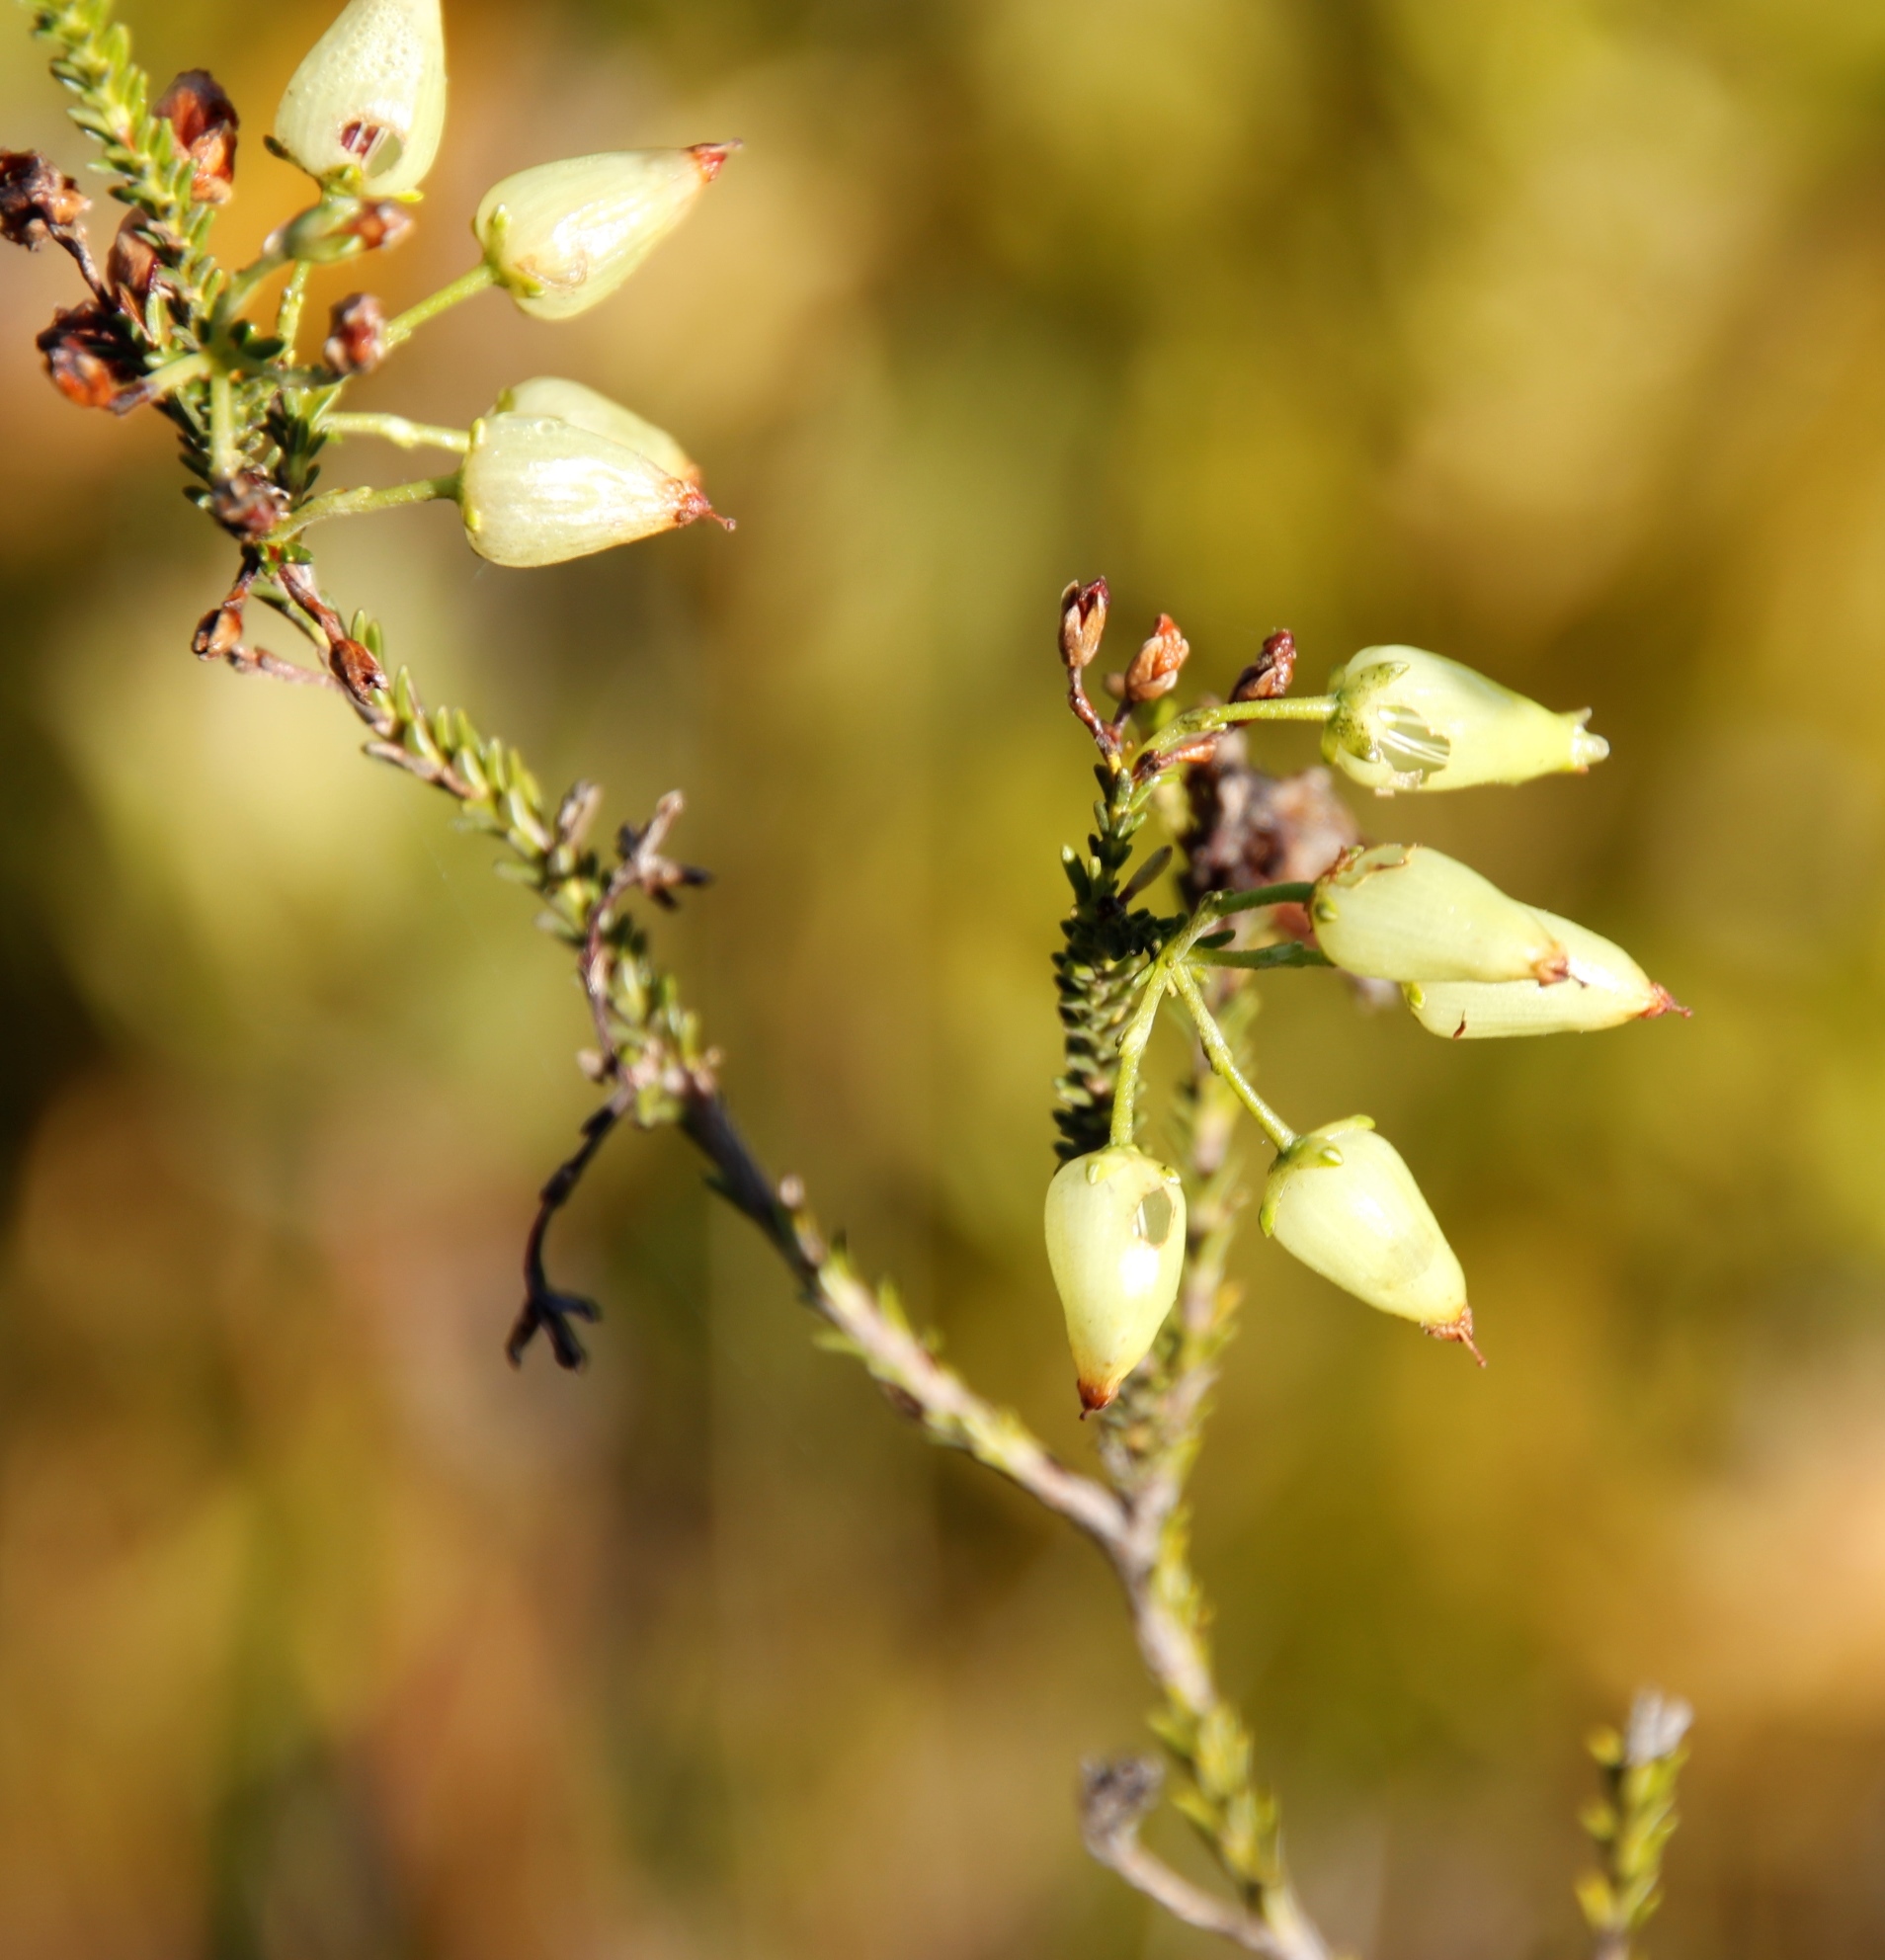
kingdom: Plantae
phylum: Tracheophyta
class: Magnoliopsida
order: Ericales
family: Ericaceae
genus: Erica
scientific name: Erica urna-viridis
